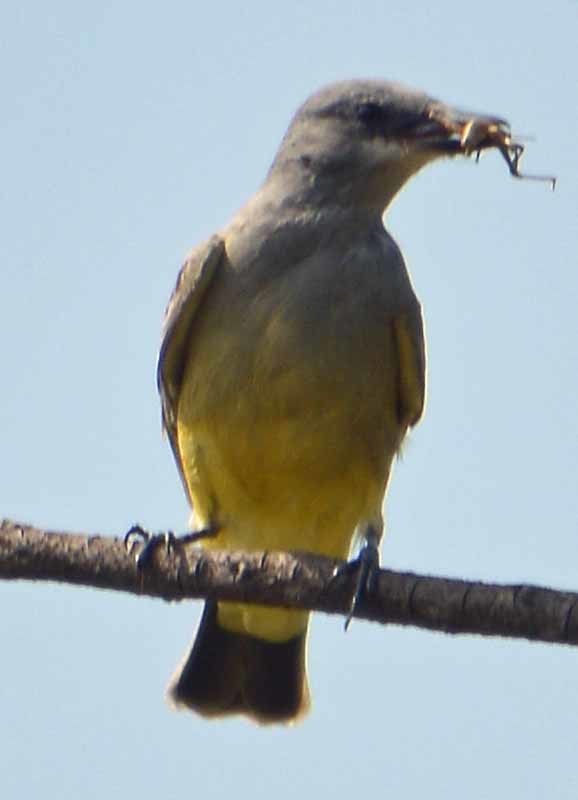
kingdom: Animalia
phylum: Chordata
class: Aves
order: Passeriformes
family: Tyrannidae
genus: Tyrannus
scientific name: Tyrannus vociferans
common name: Cassin's kingbird
